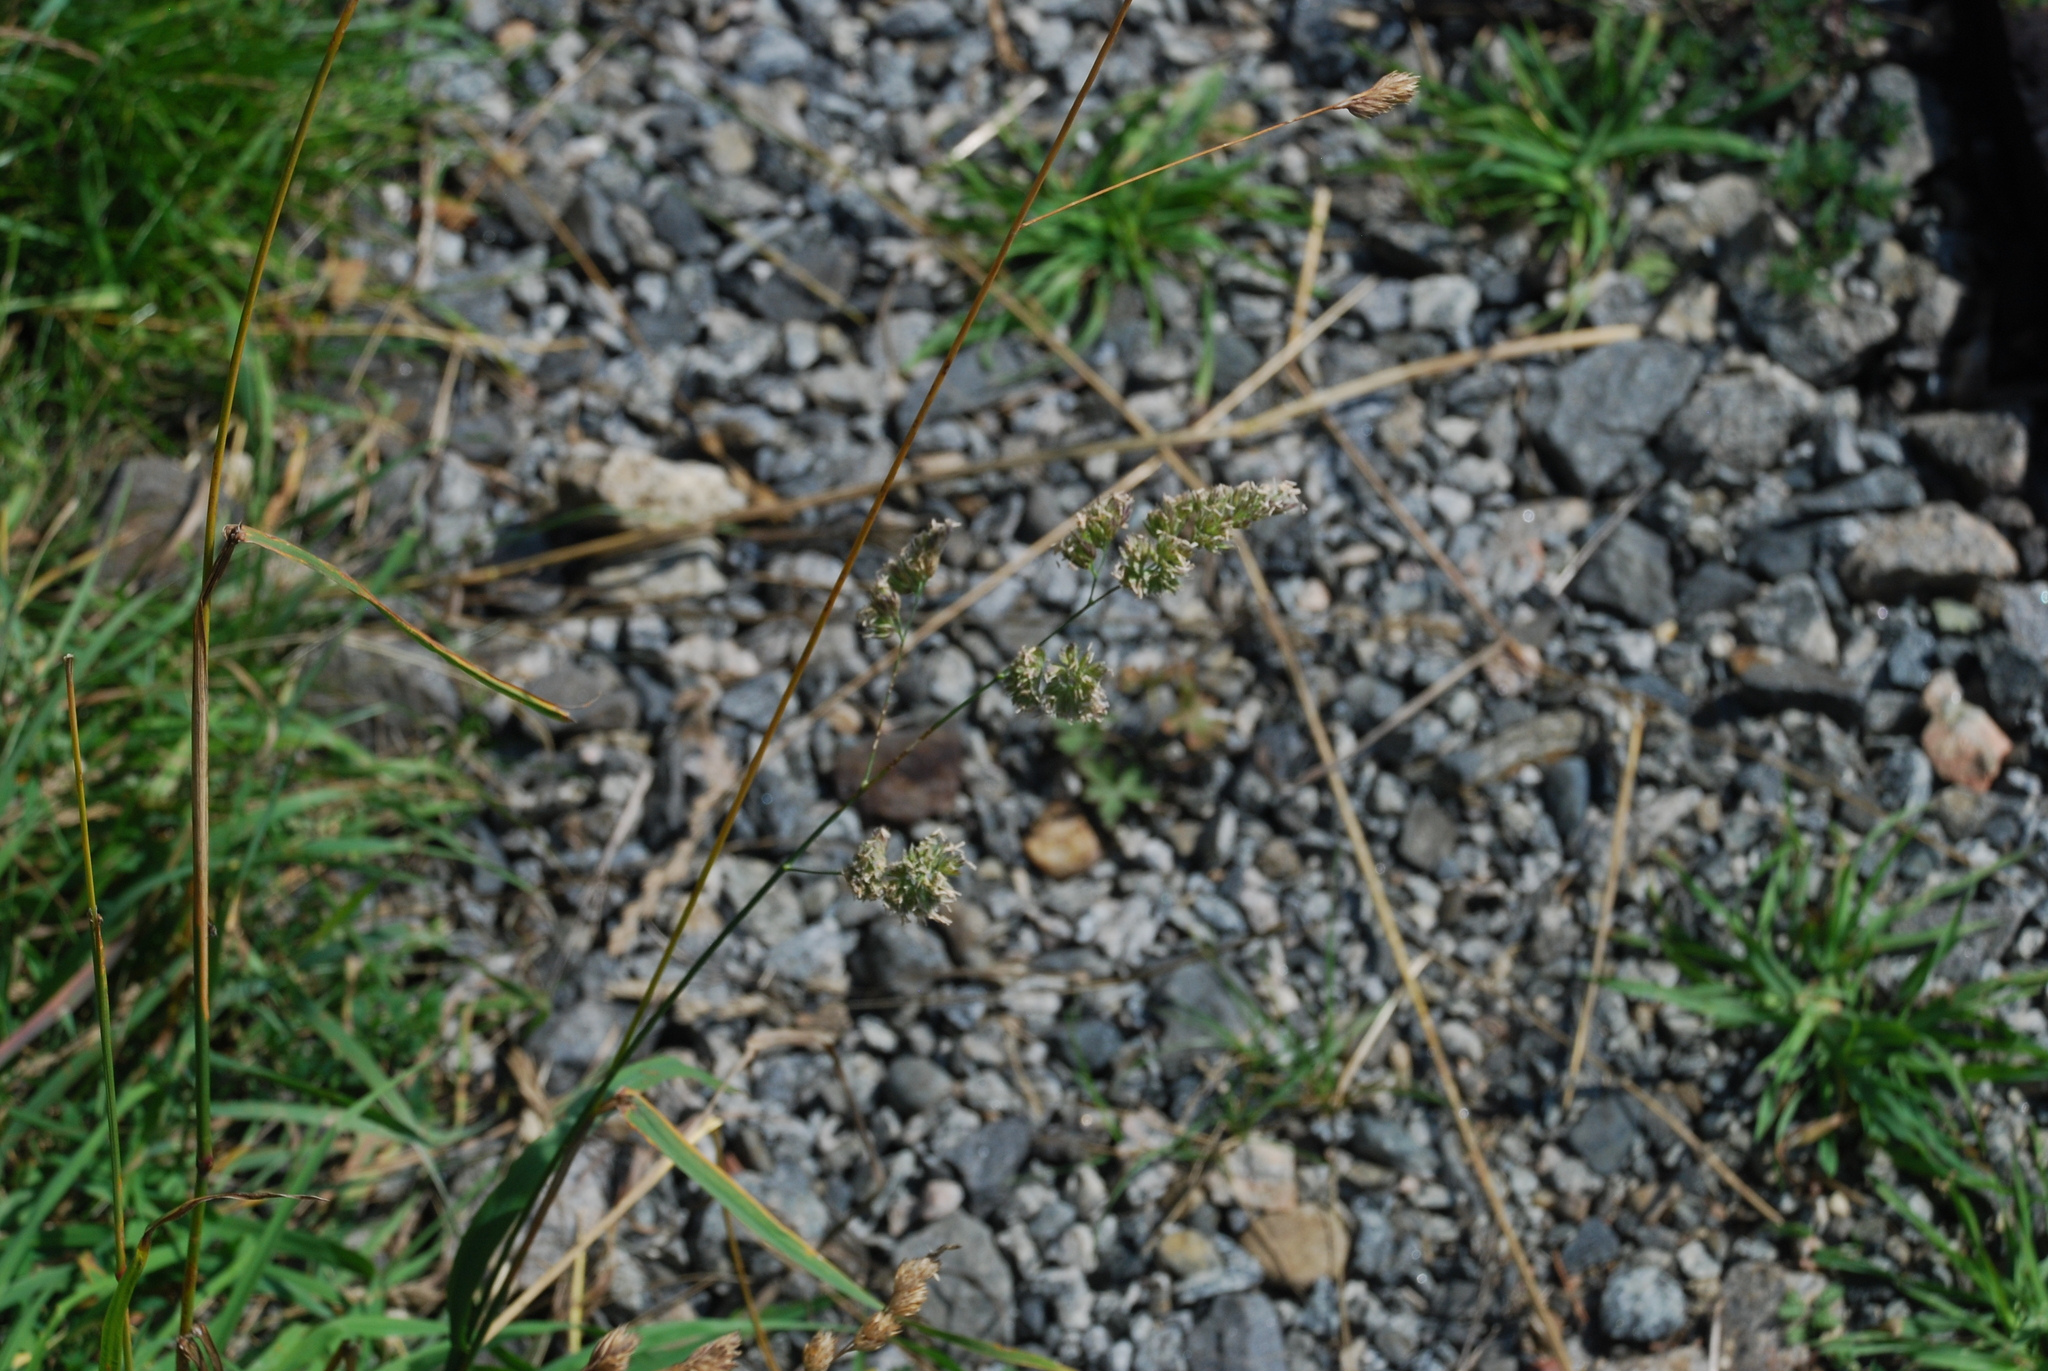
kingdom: Plantae
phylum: Tracheophyta
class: Liliopsida
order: Poales
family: Poaceae
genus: Dactylis
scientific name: Dactylis glomerata
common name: Orchardgrass
